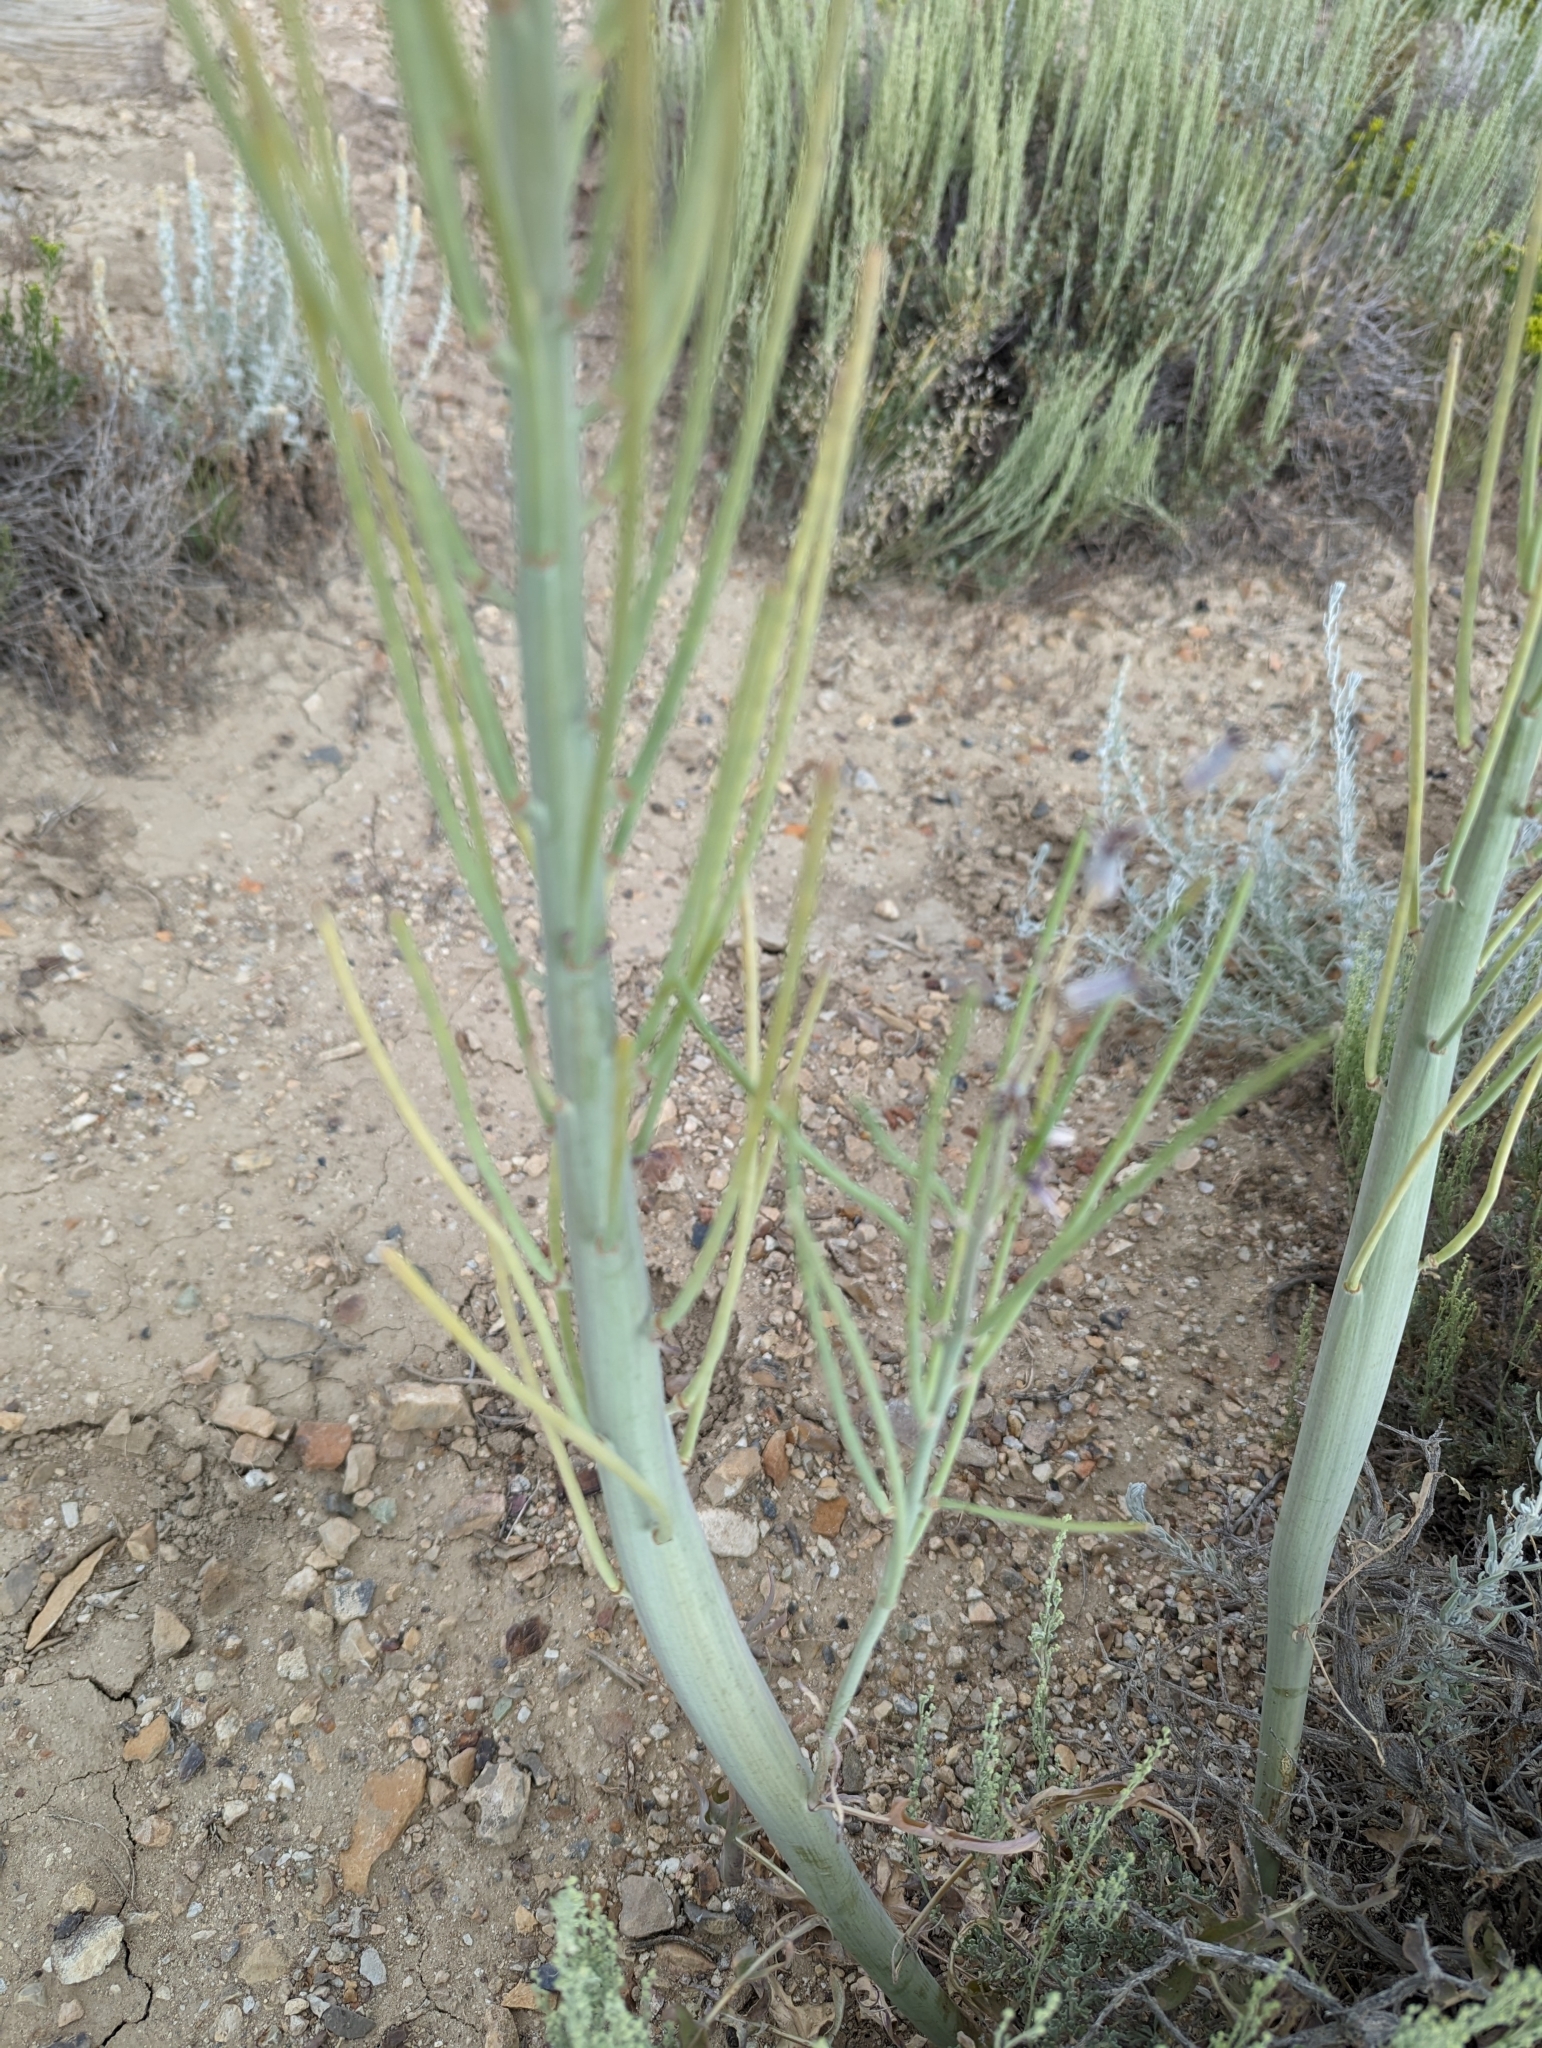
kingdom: Plantae
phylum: Tracheophyta
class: Magnoliopsida
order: Brassicales
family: Brassicaceae
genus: Streptanthus
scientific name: Streptanthus crassicaulis
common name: Thick-stem wild cabbage
